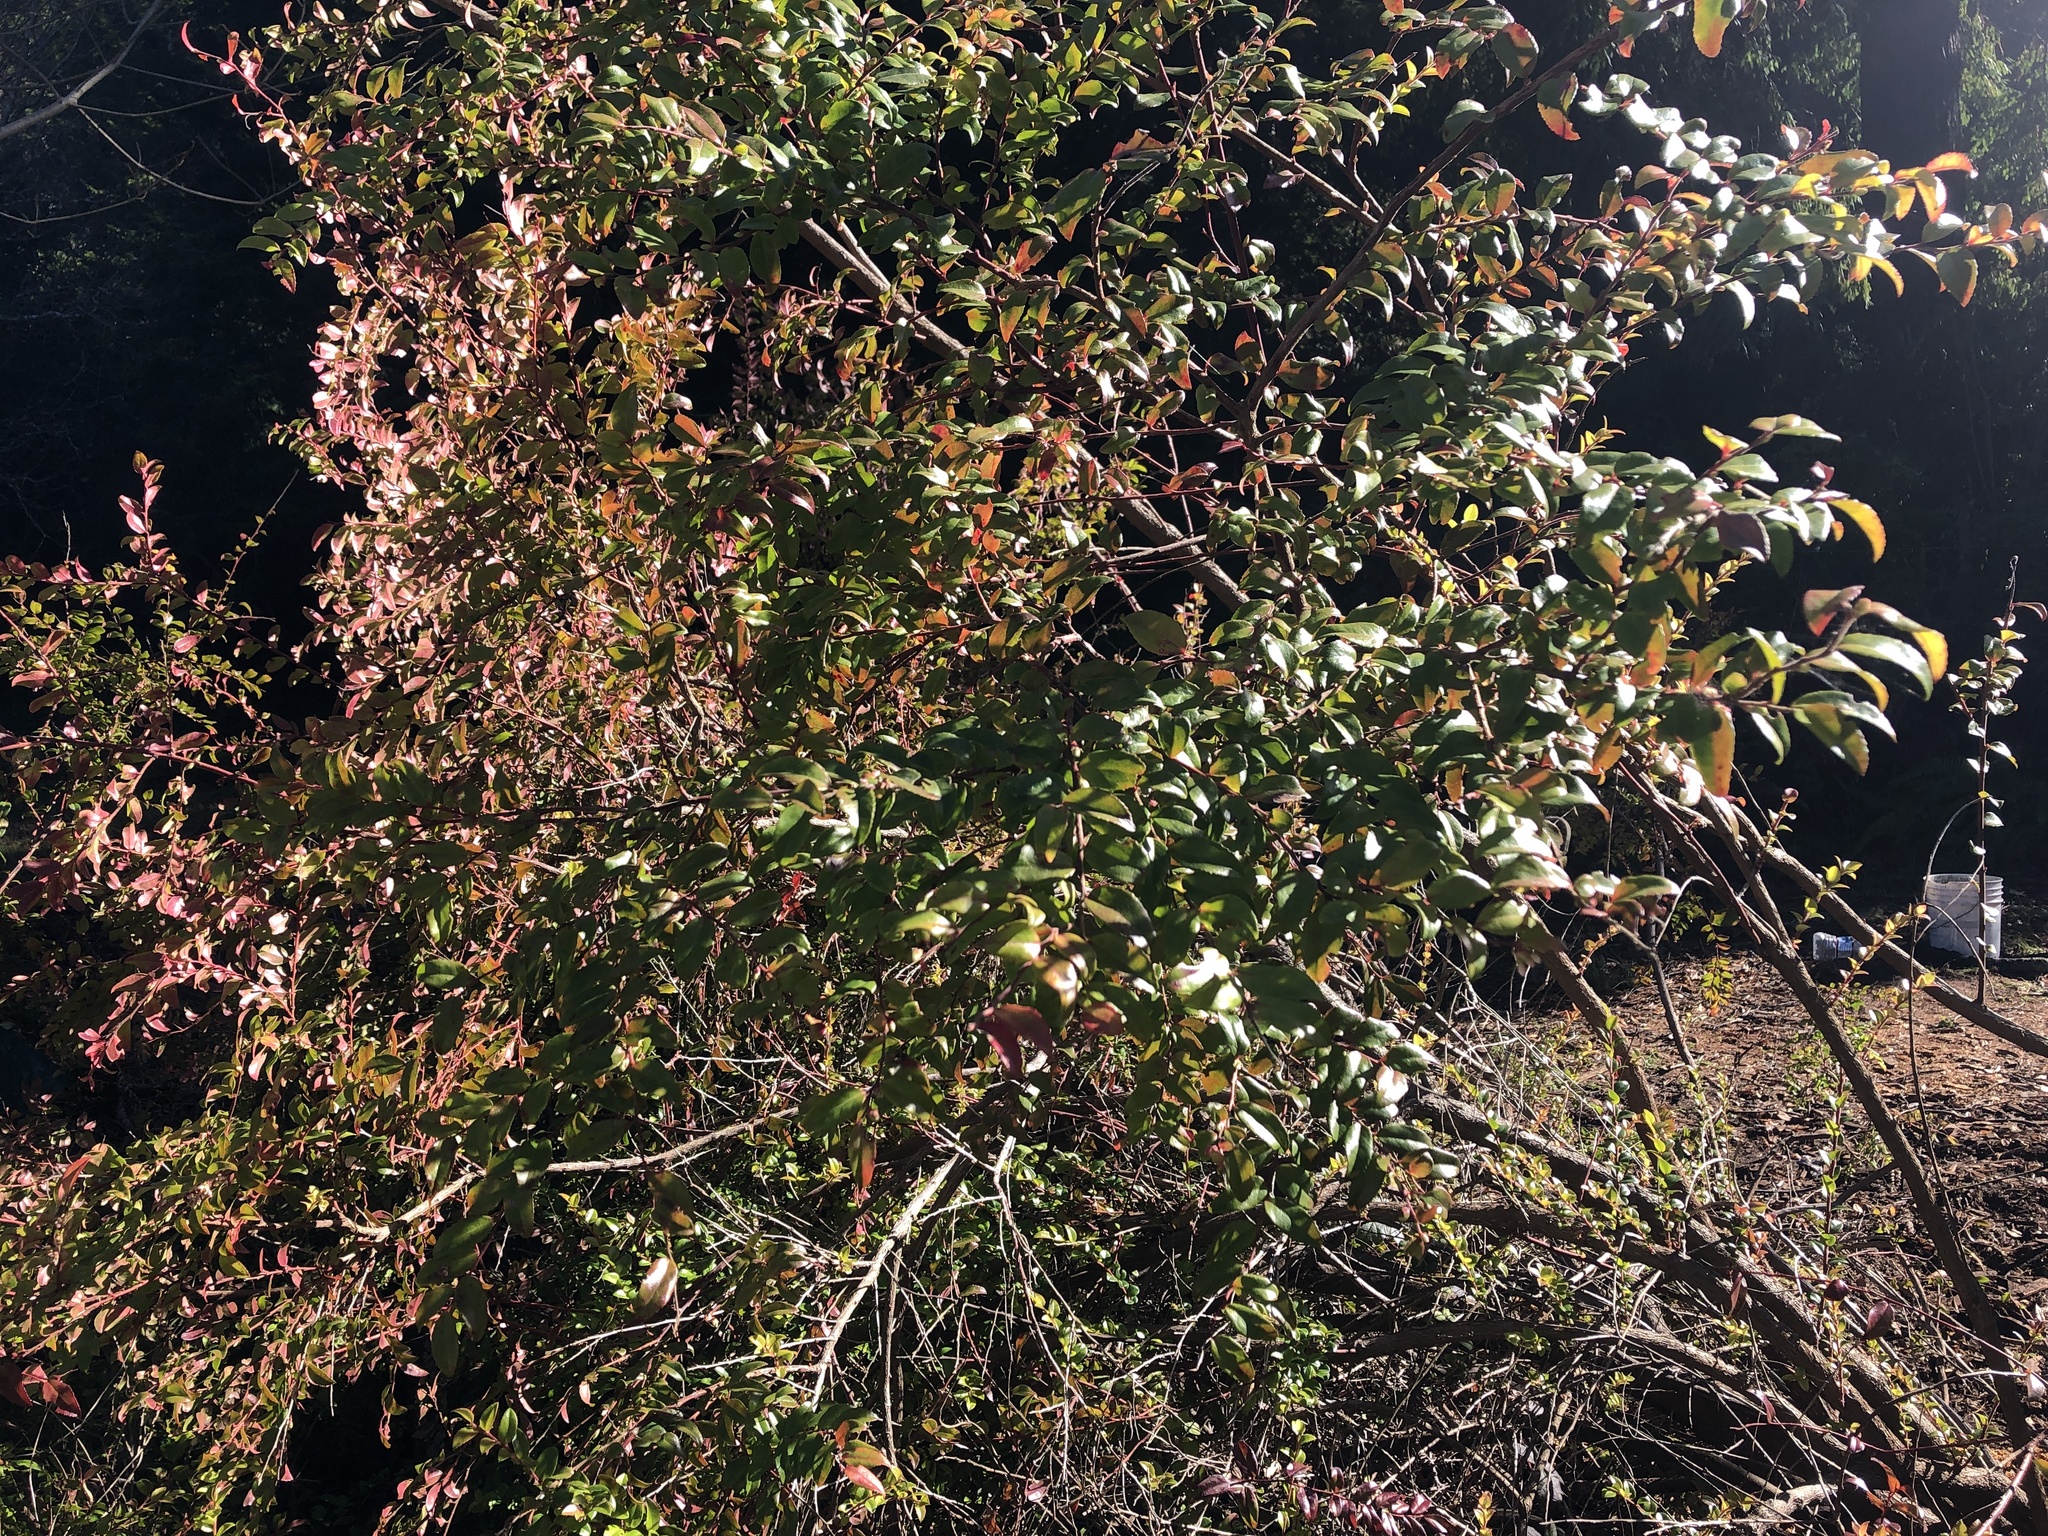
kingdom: Plantae
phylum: Tracheophyta
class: Magnoliopsida
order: Ericales
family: Ericaceae
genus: Vaccinium
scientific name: Vaccinium ovatum
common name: California-huckleberry
